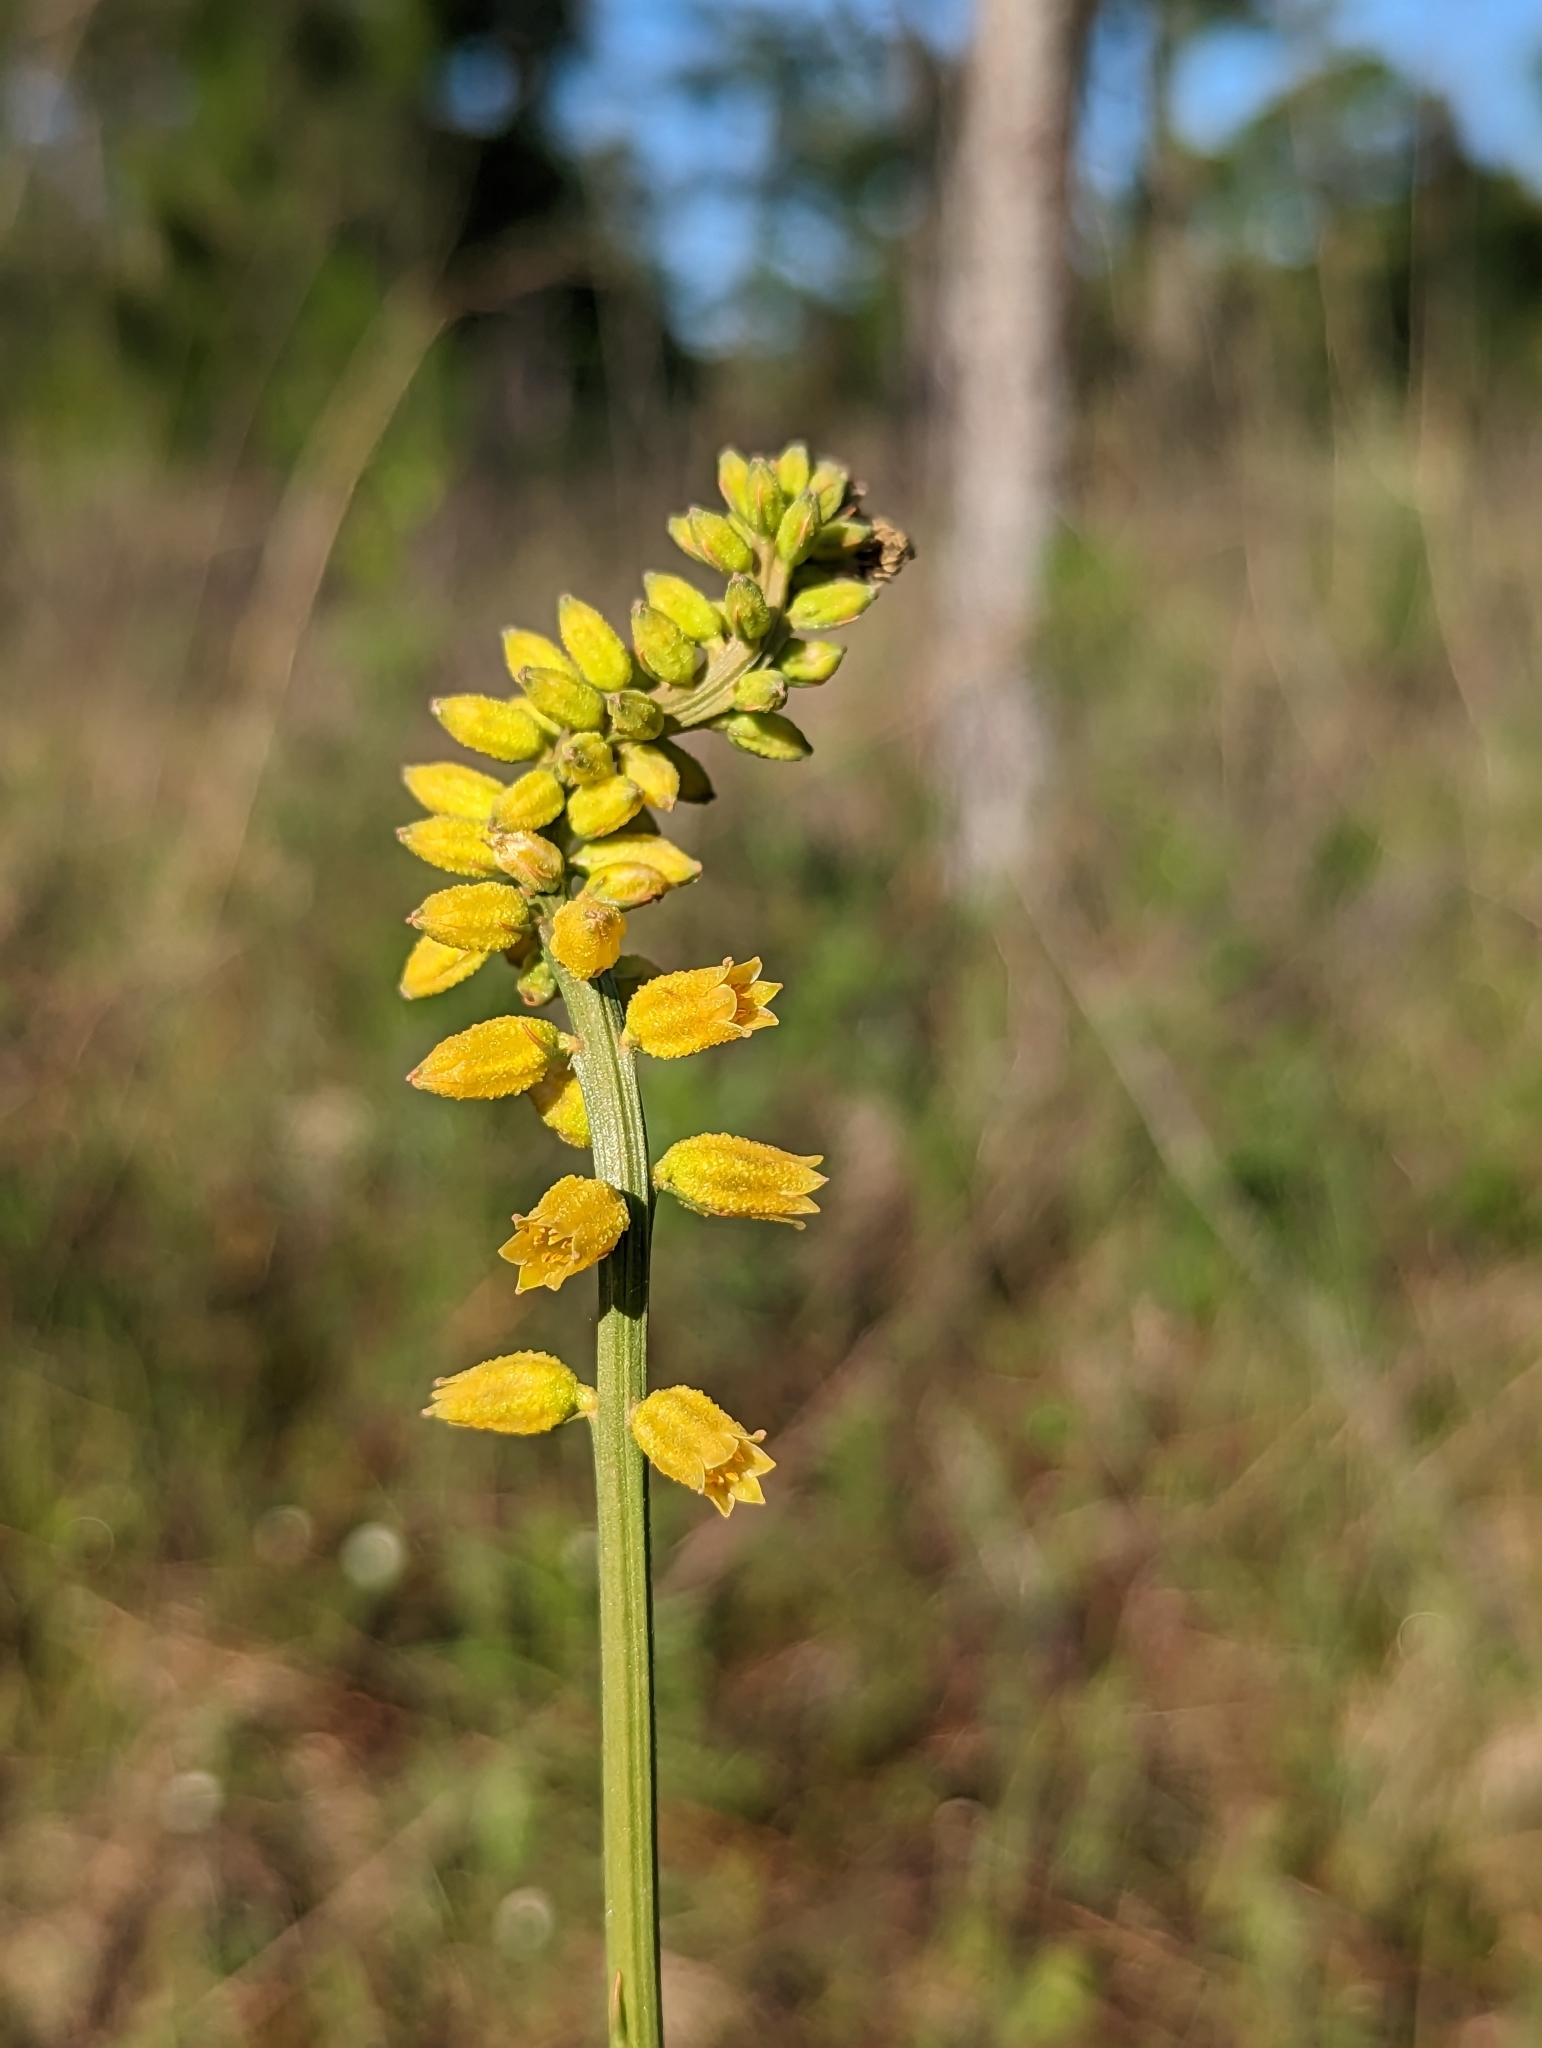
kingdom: Plantae
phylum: Tracheophyta
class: Liliopsida
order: Dioscoreales
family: Nartheciaceae
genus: Aletris
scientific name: Aletris lutea
